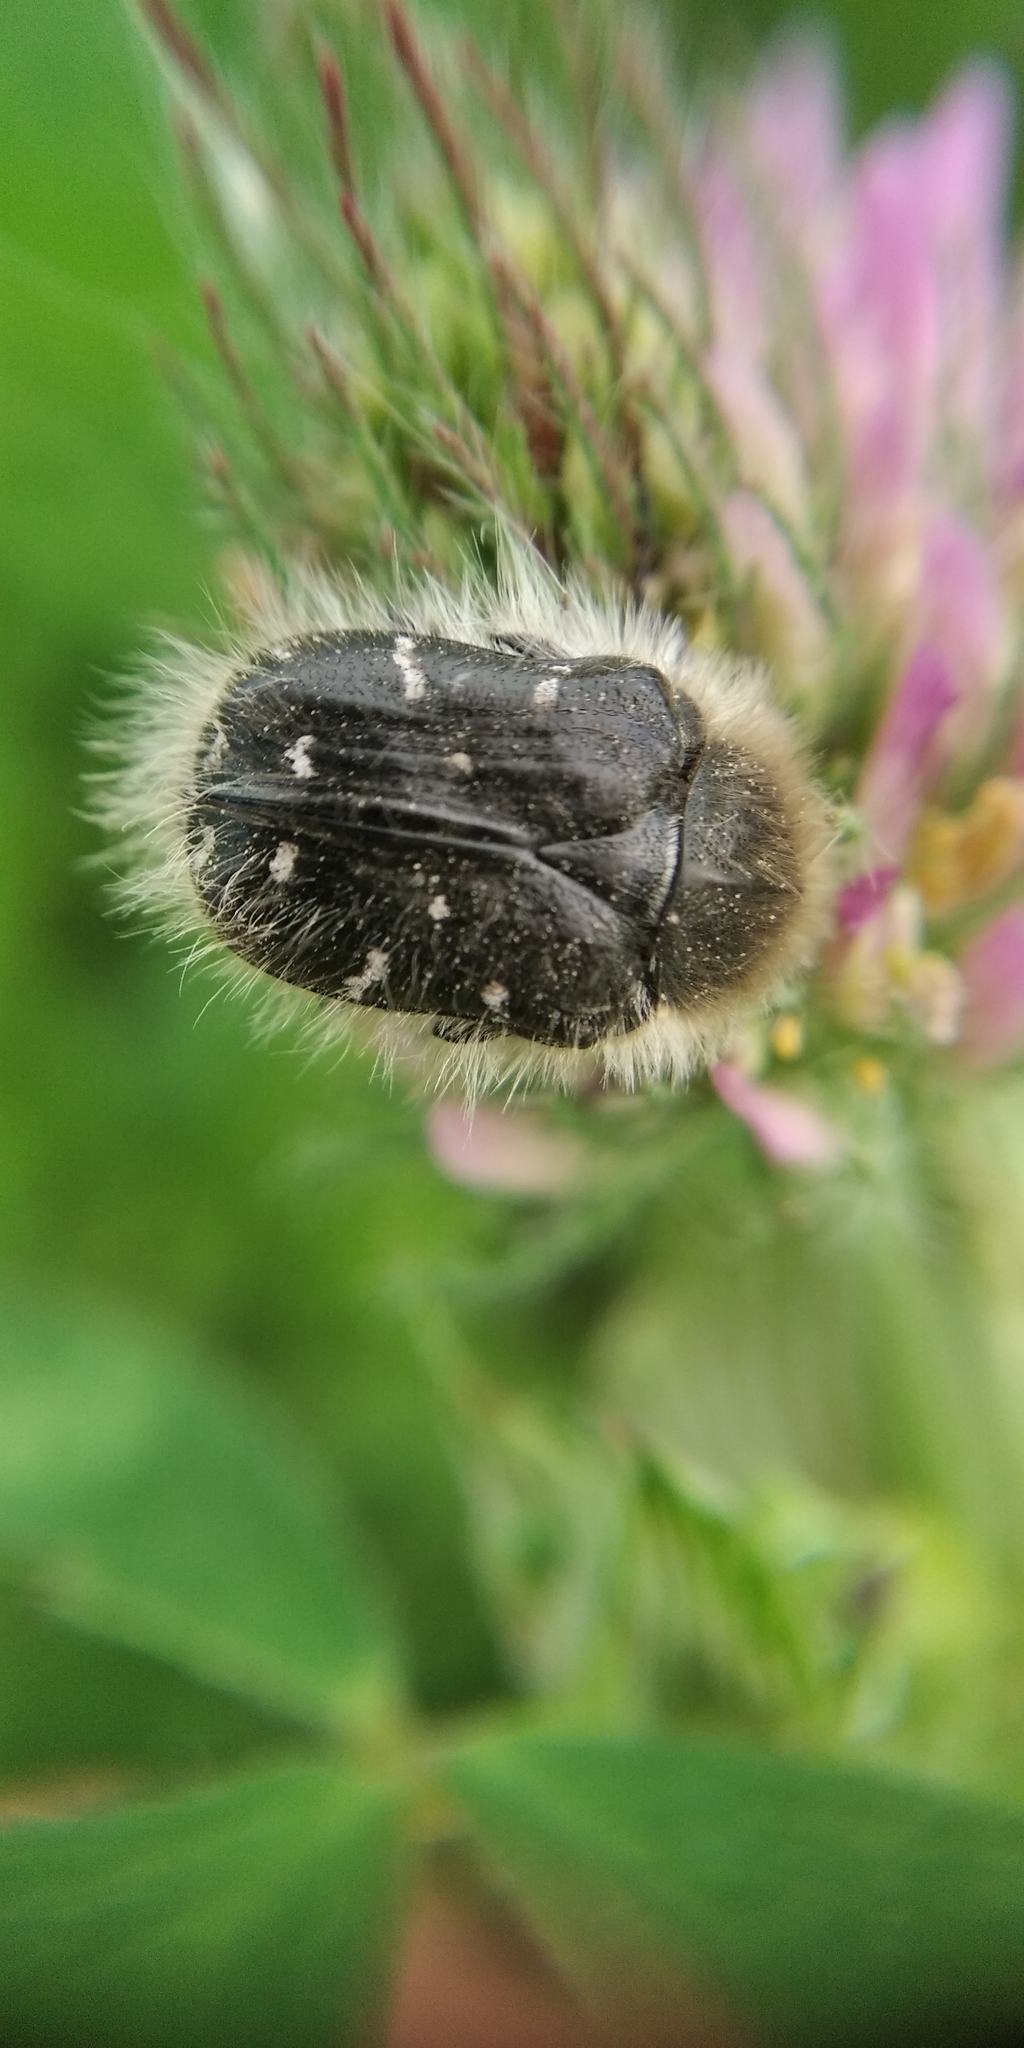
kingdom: Animalia
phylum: Arthropoda
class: Insecta
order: Coleoptera
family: Scarabaeidae
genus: Tropinota
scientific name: Tropinota hirta
